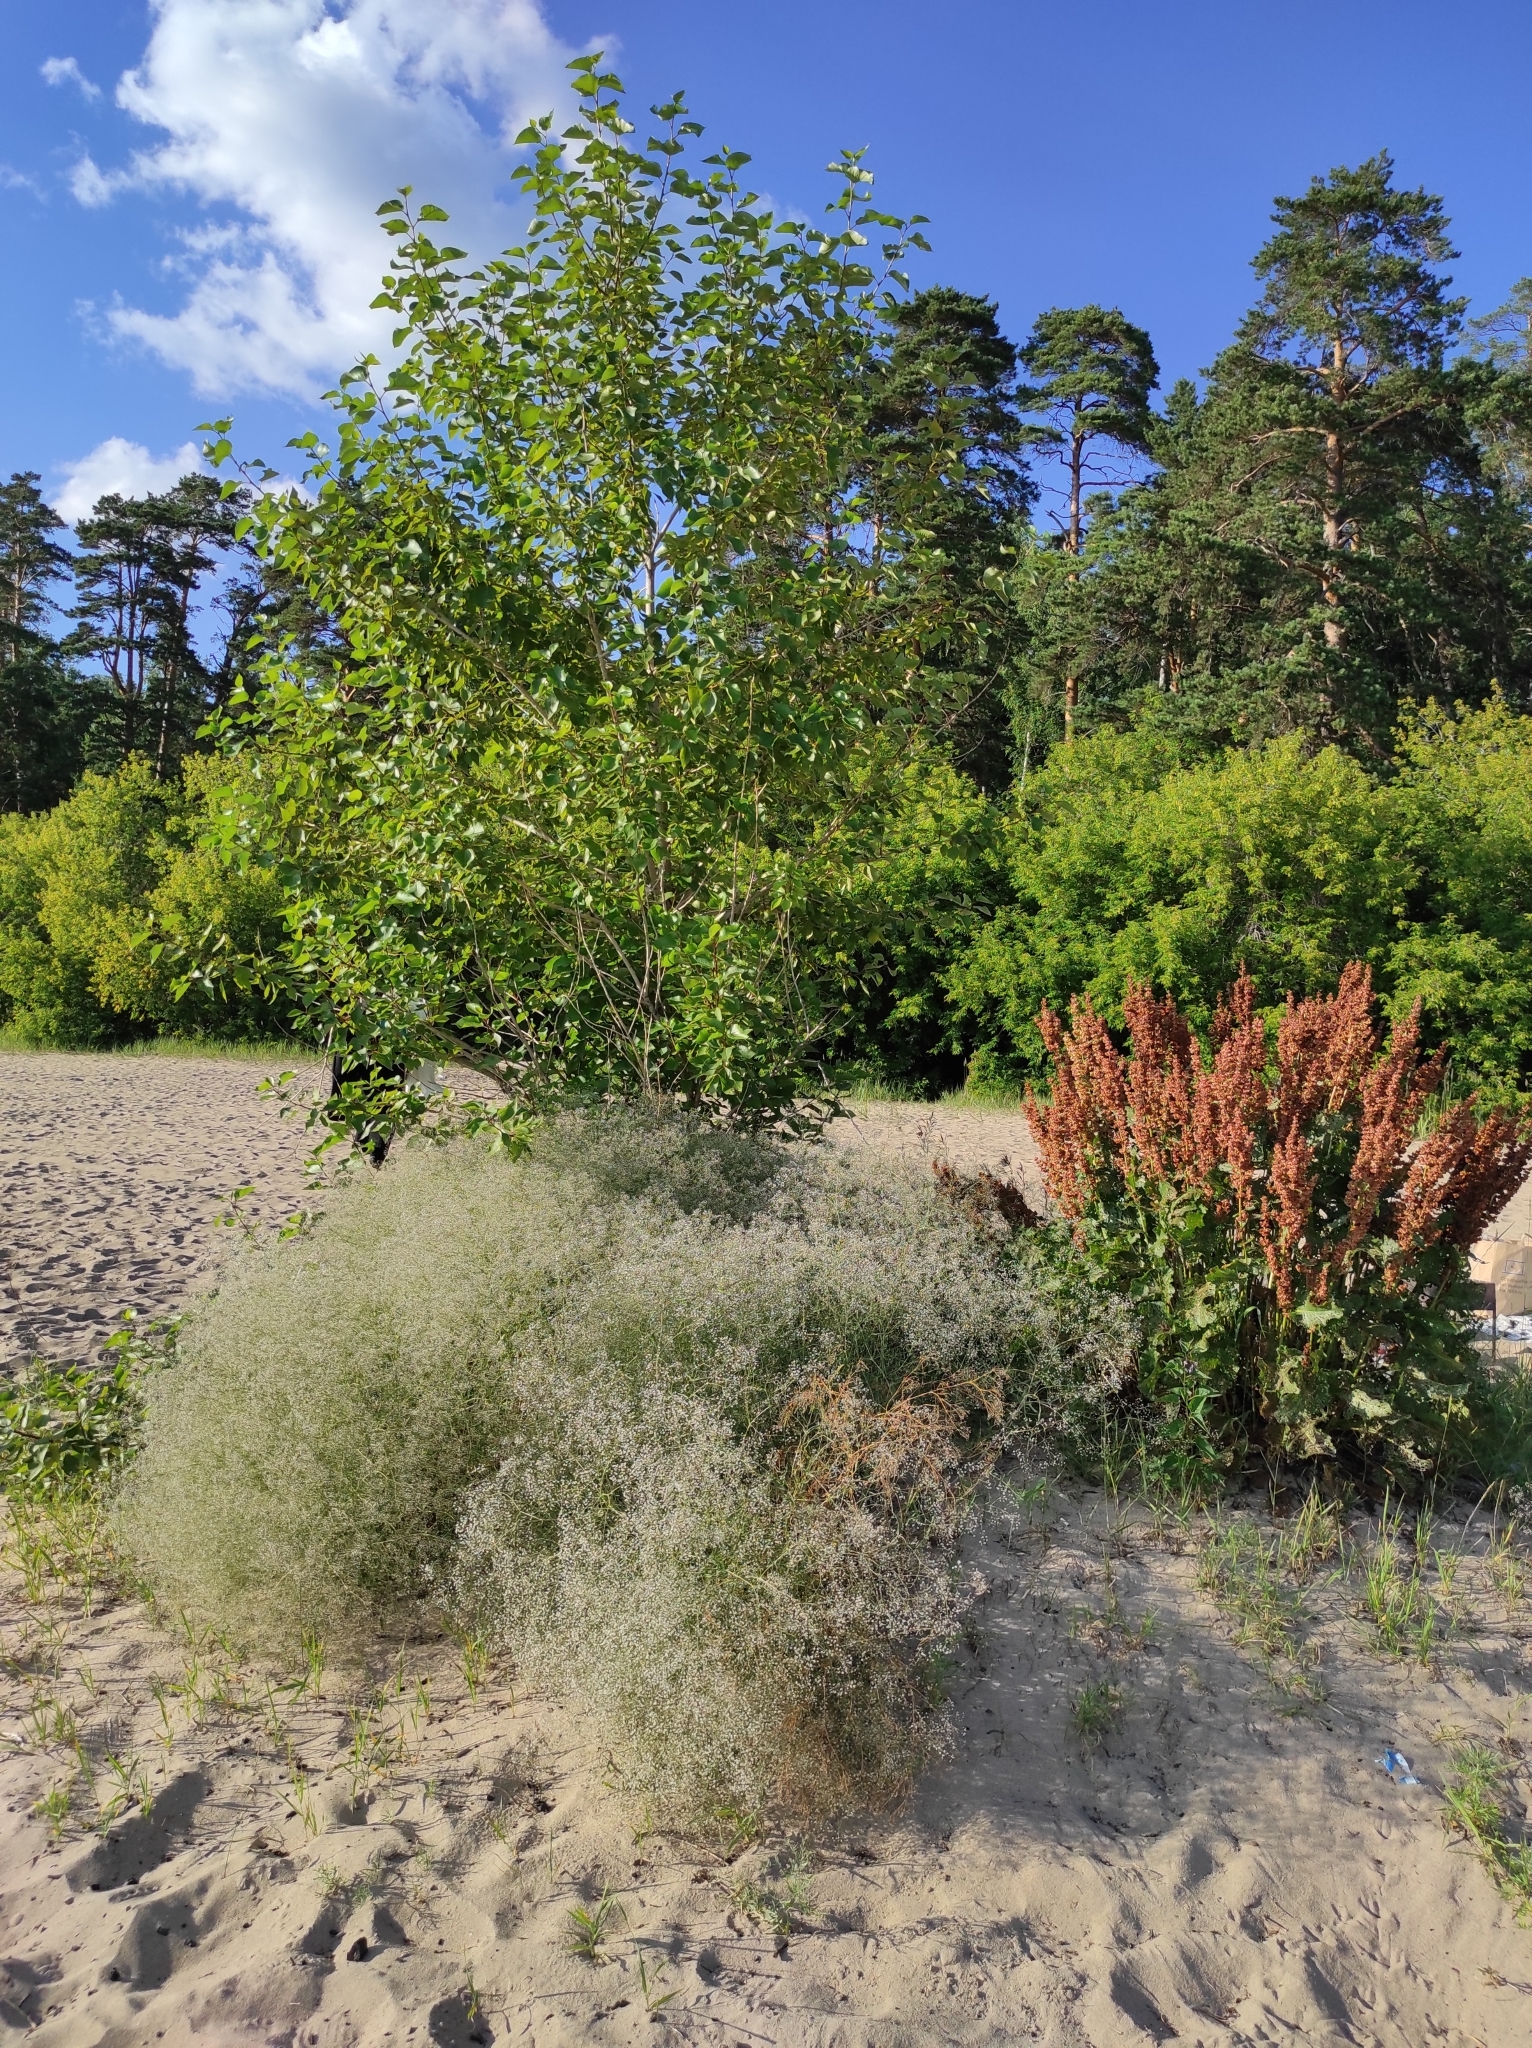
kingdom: Plantae
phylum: Tracheophyta
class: Magnoliopsida
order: Caryophyllales
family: Polygonaceae
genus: Rumex
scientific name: Rumex confertus
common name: Russian dock
